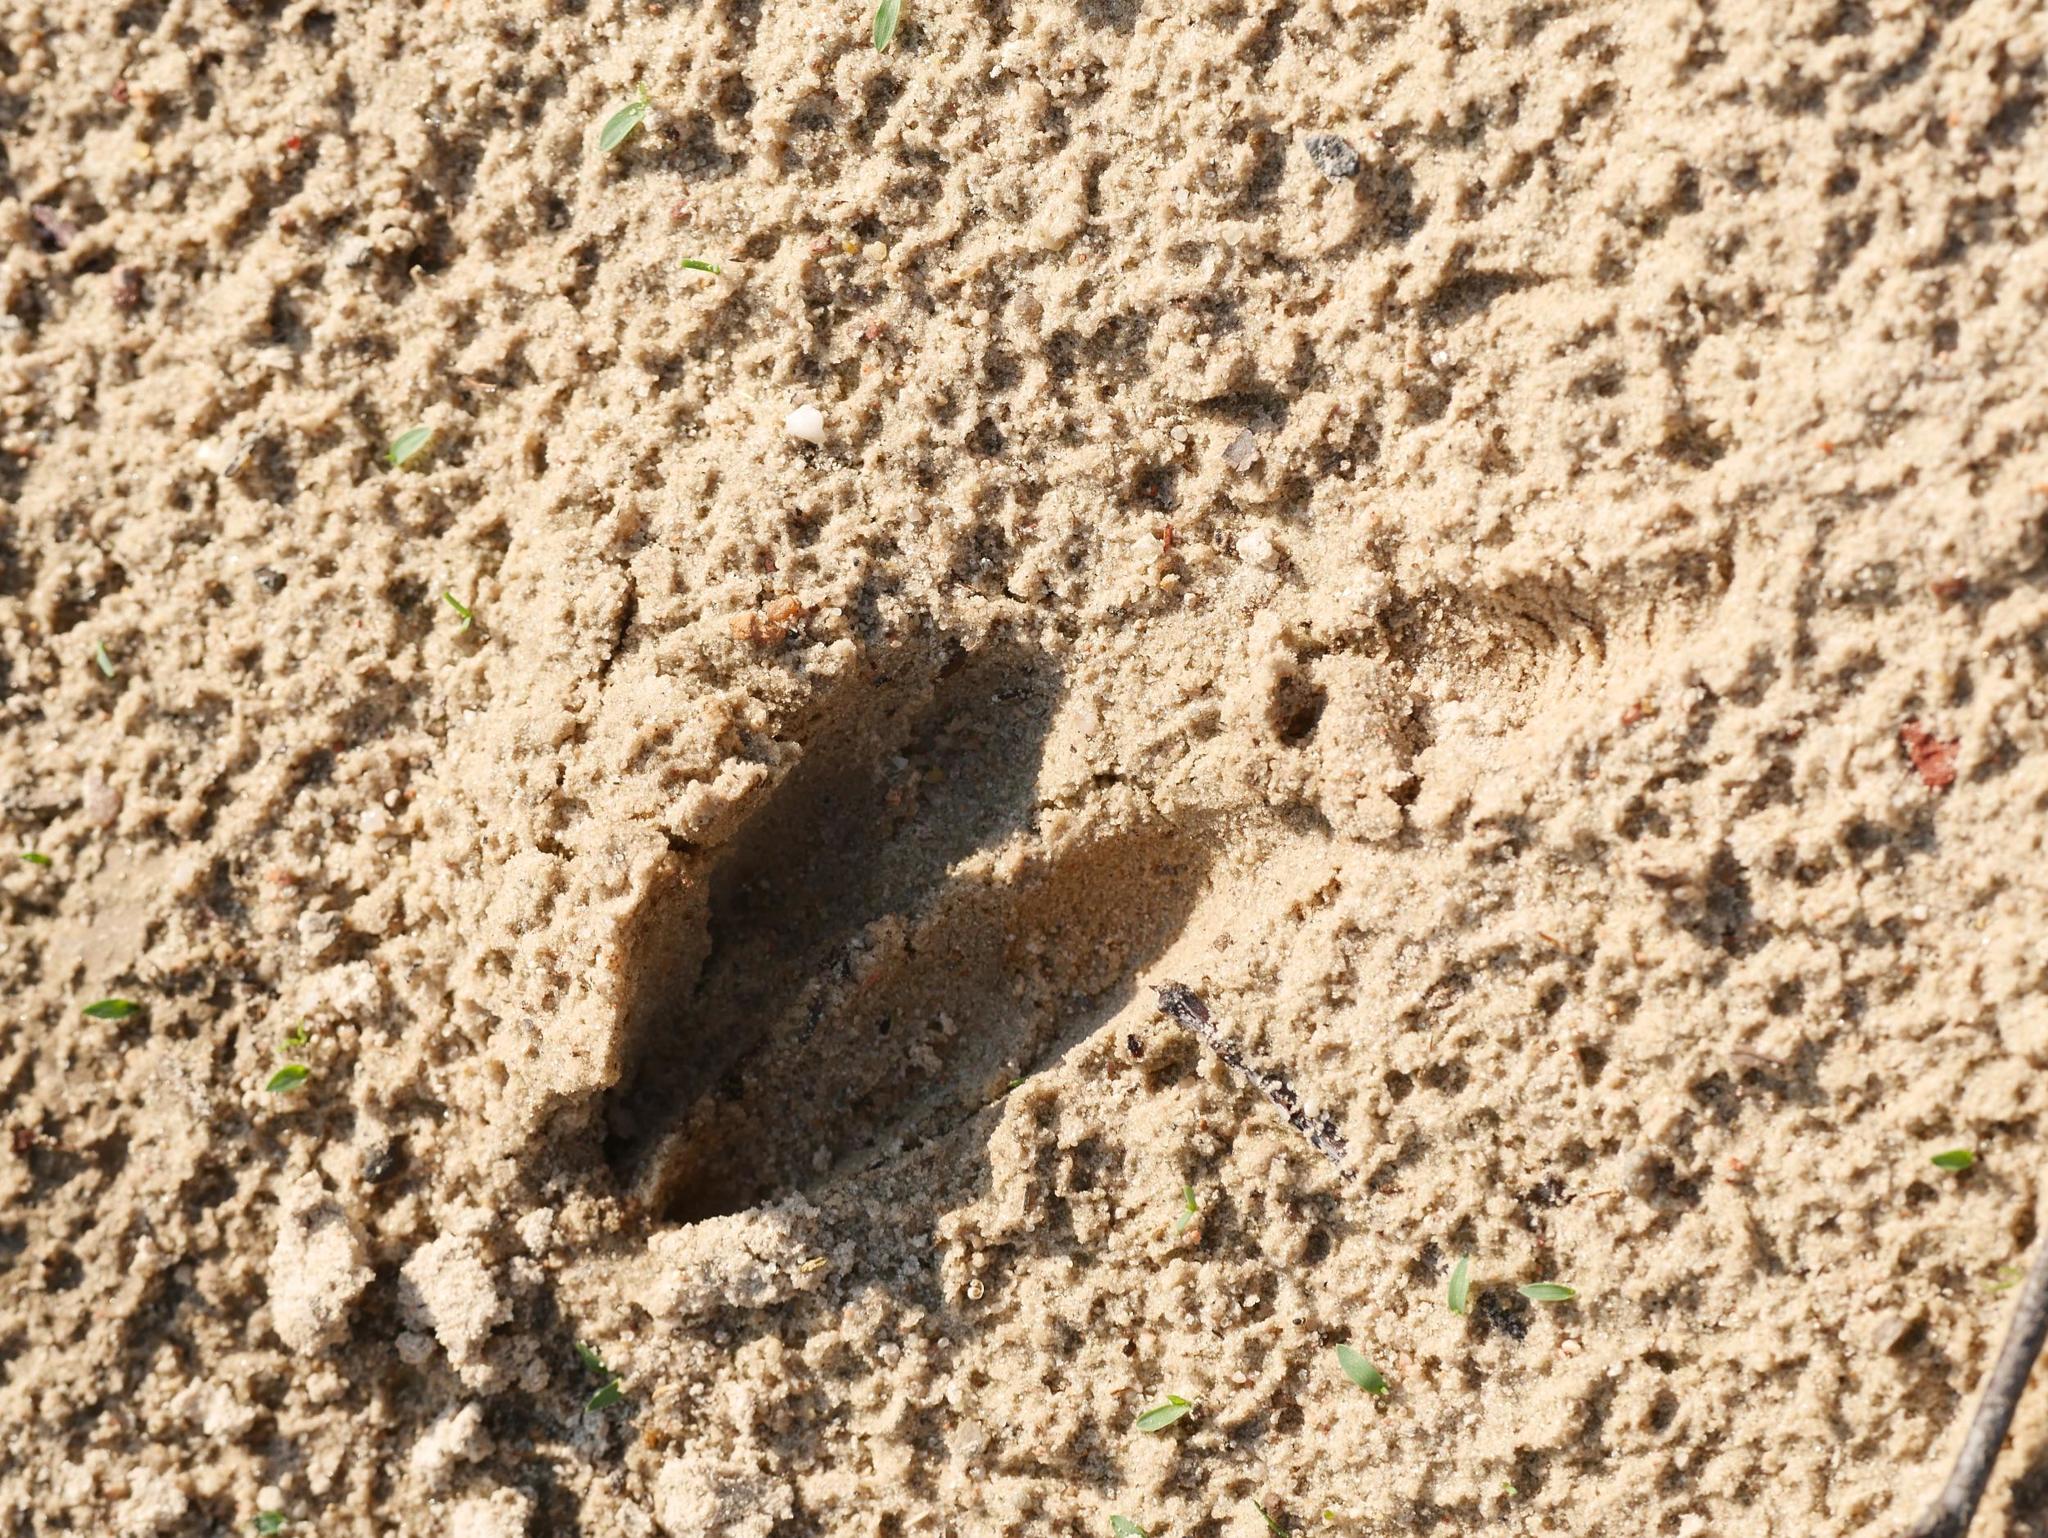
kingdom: Animalia
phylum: Chordata
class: Mammalia
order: Artiodactyla
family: Cervidae
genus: Cervus
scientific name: Cervus elaphus
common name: Red deer
